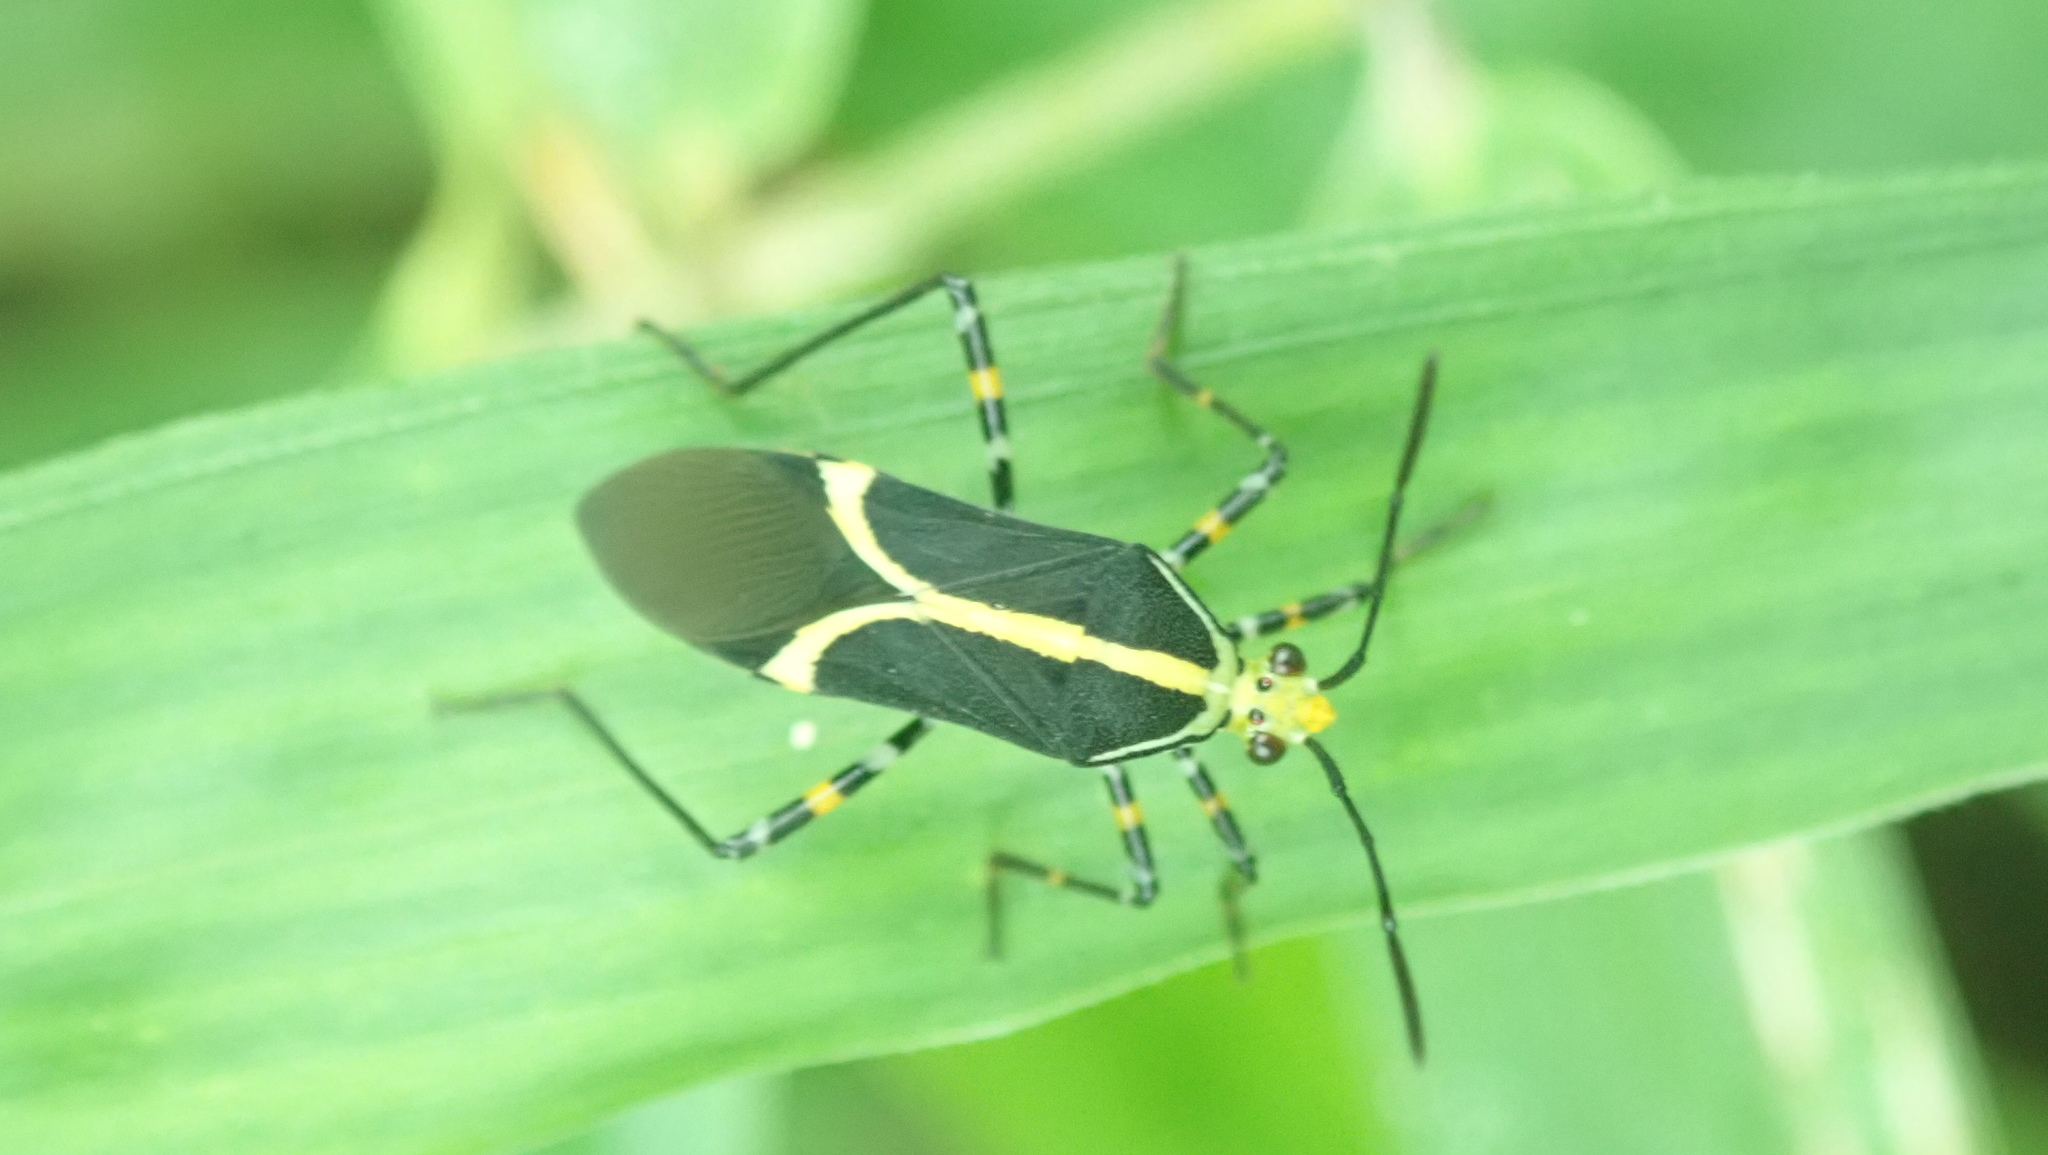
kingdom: Animalia
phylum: Arthropoda
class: Insecta
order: Hemiptera
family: Coreidae
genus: Hypselonotus
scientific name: Hypselonotus linea
